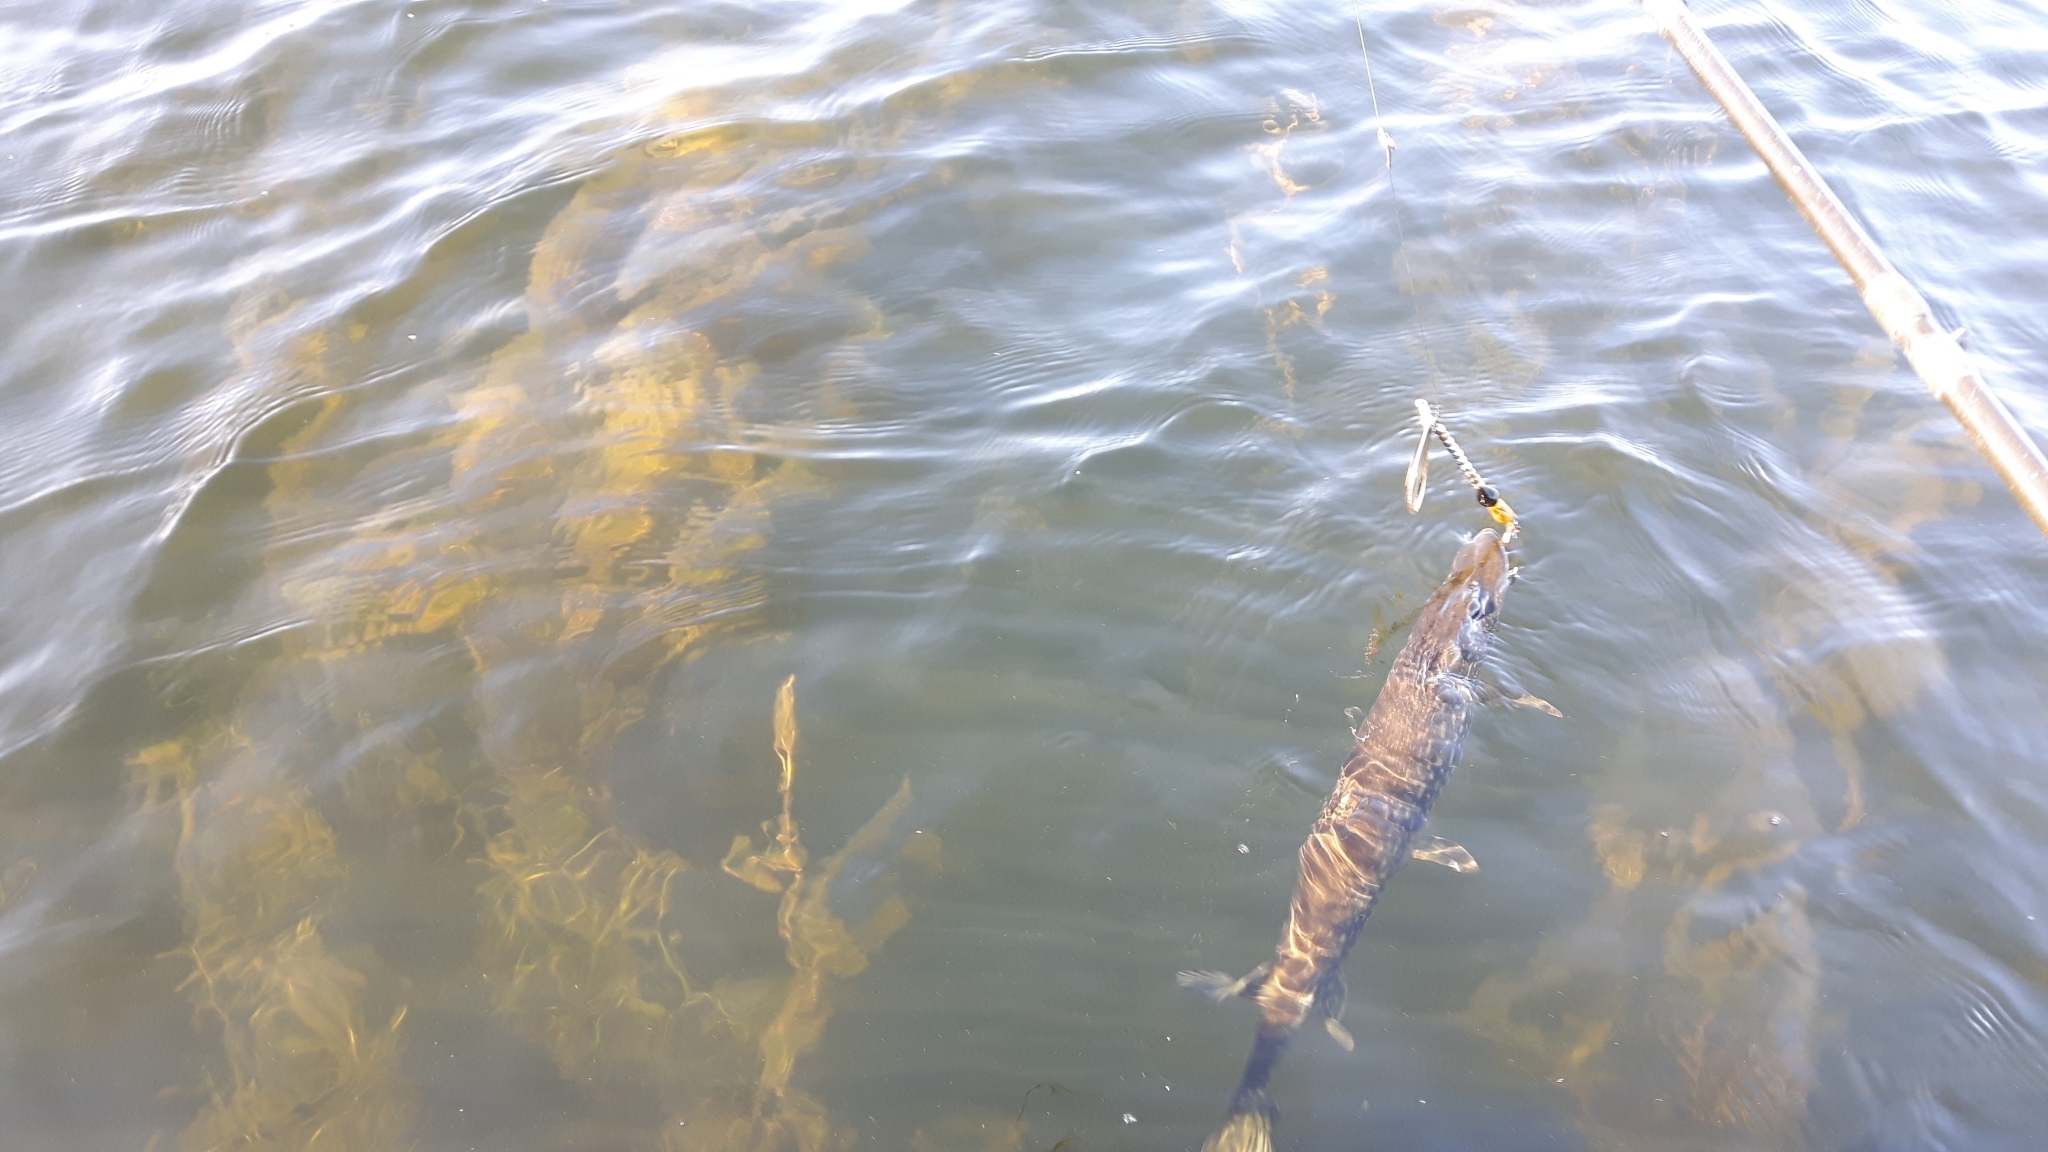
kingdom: Animalia
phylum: Chordata
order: Esociformes
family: Esocidae
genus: Esox
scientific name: Esox lucius
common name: Northern pike
